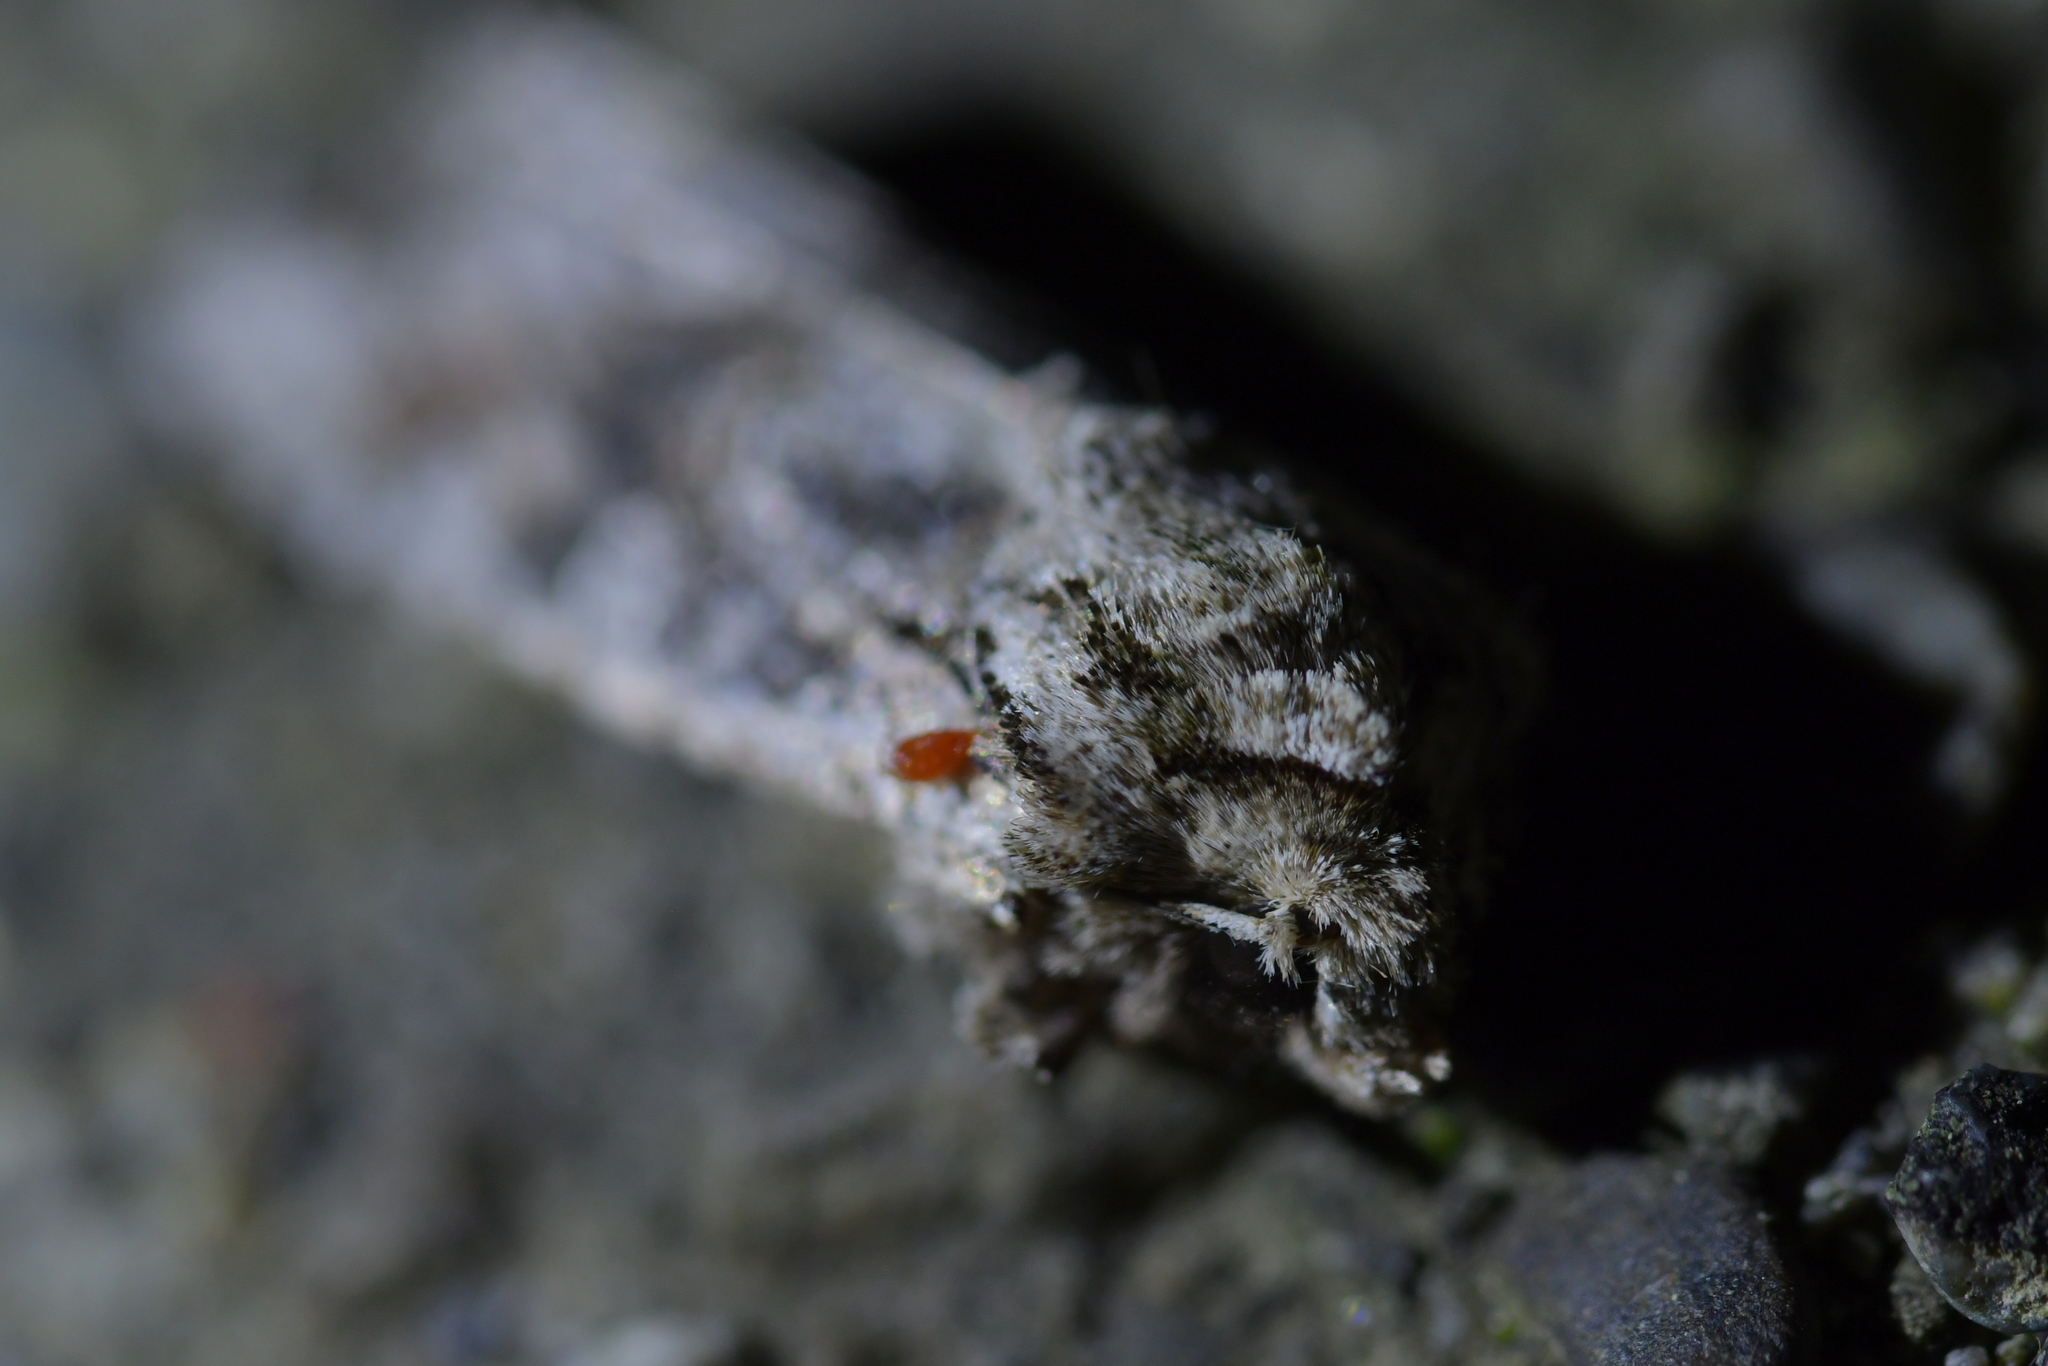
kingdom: Animalia
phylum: Arthropoda
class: Insecta
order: Lepidoptera
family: Noctuidae
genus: Ichneutica
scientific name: Ichneutica mutans
